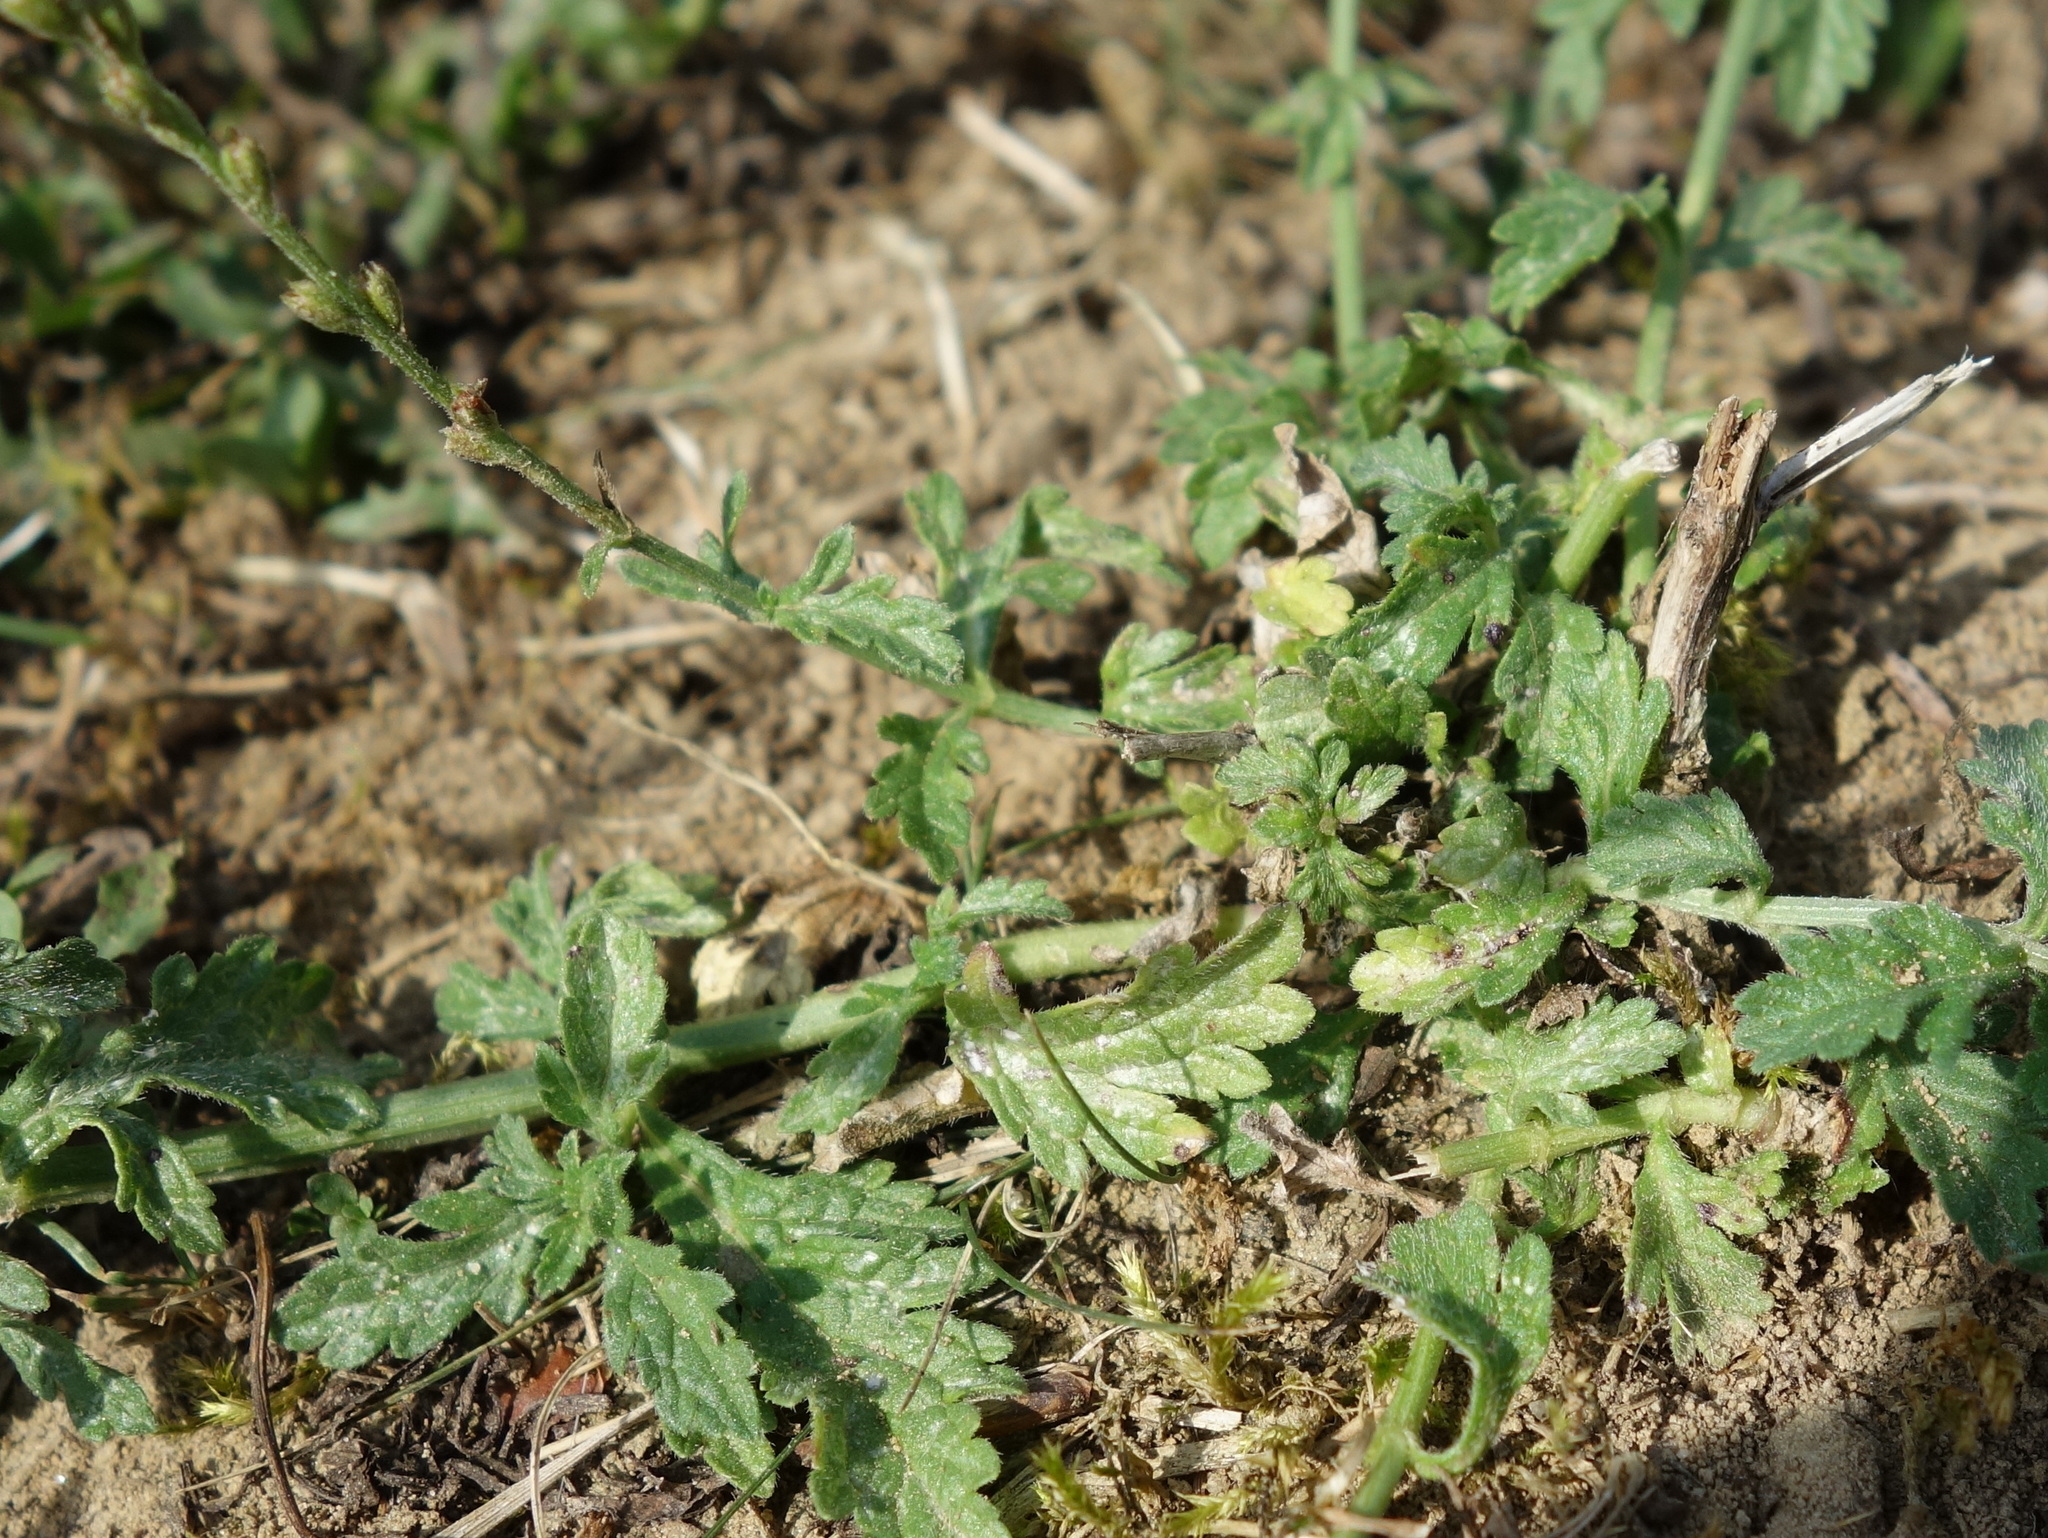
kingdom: Plantae
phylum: Tracheophyta
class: Magnoliopsida
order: Lamiales
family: Verbenaceae
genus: Verbena
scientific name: Verbena officinalis
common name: Vervain
